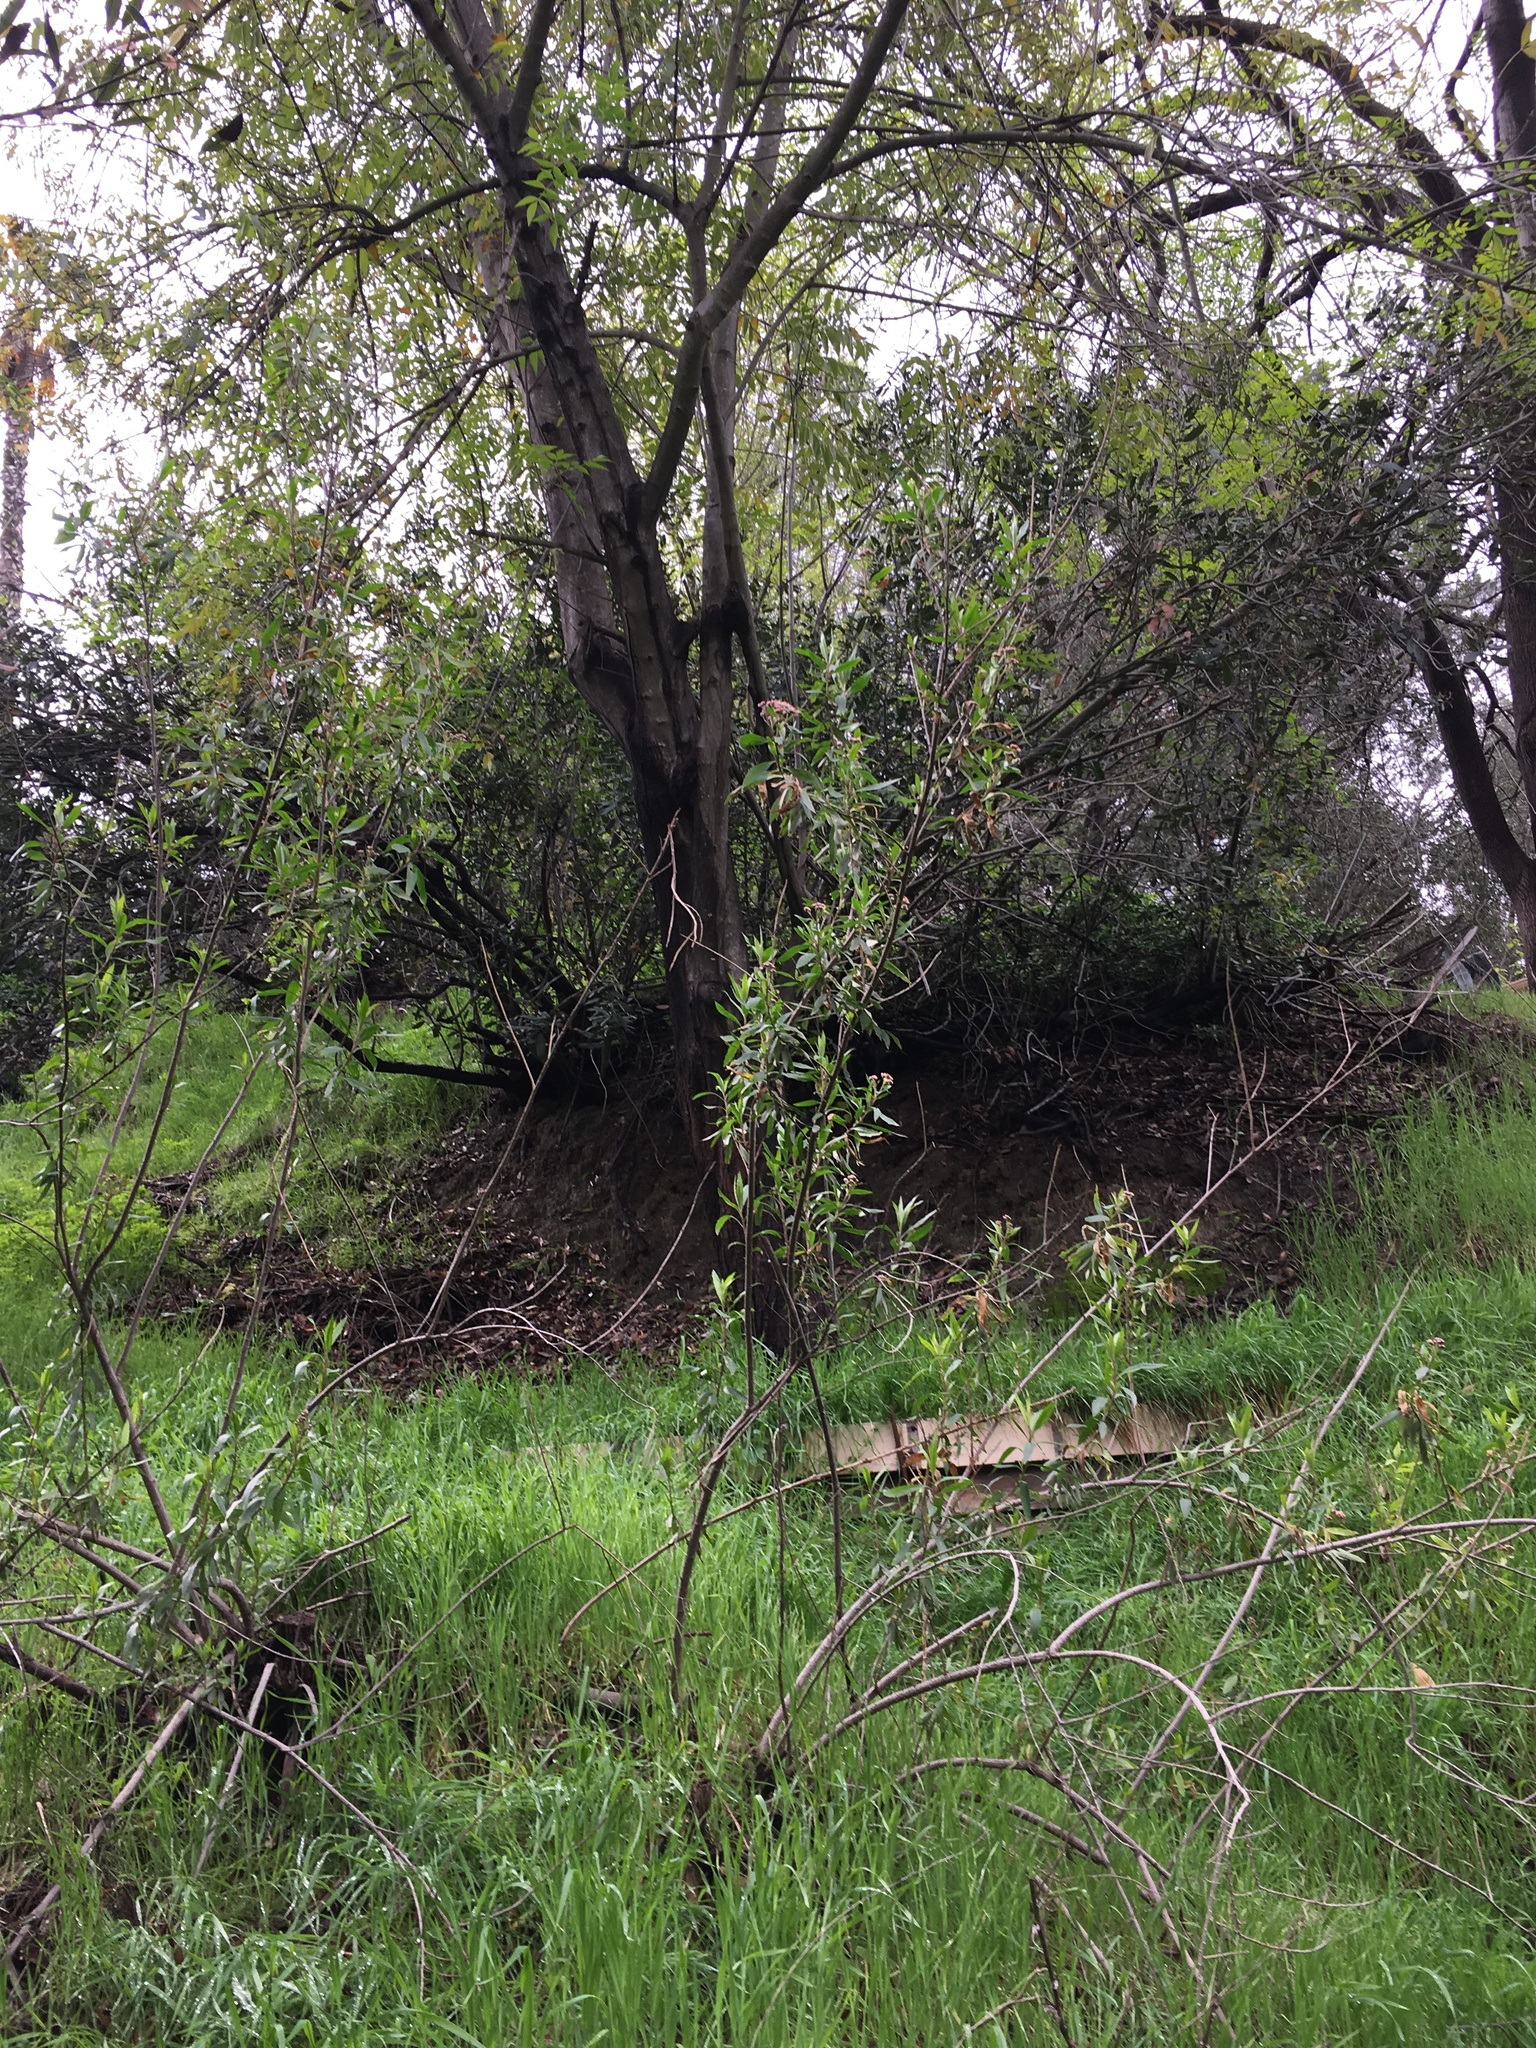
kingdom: Plantae
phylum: Tracheophyta
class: Magnoliopsida
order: Asterales
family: Asteraceae
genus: Baccharis
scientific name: Baccharis salicifolia
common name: Sticky baccharis
